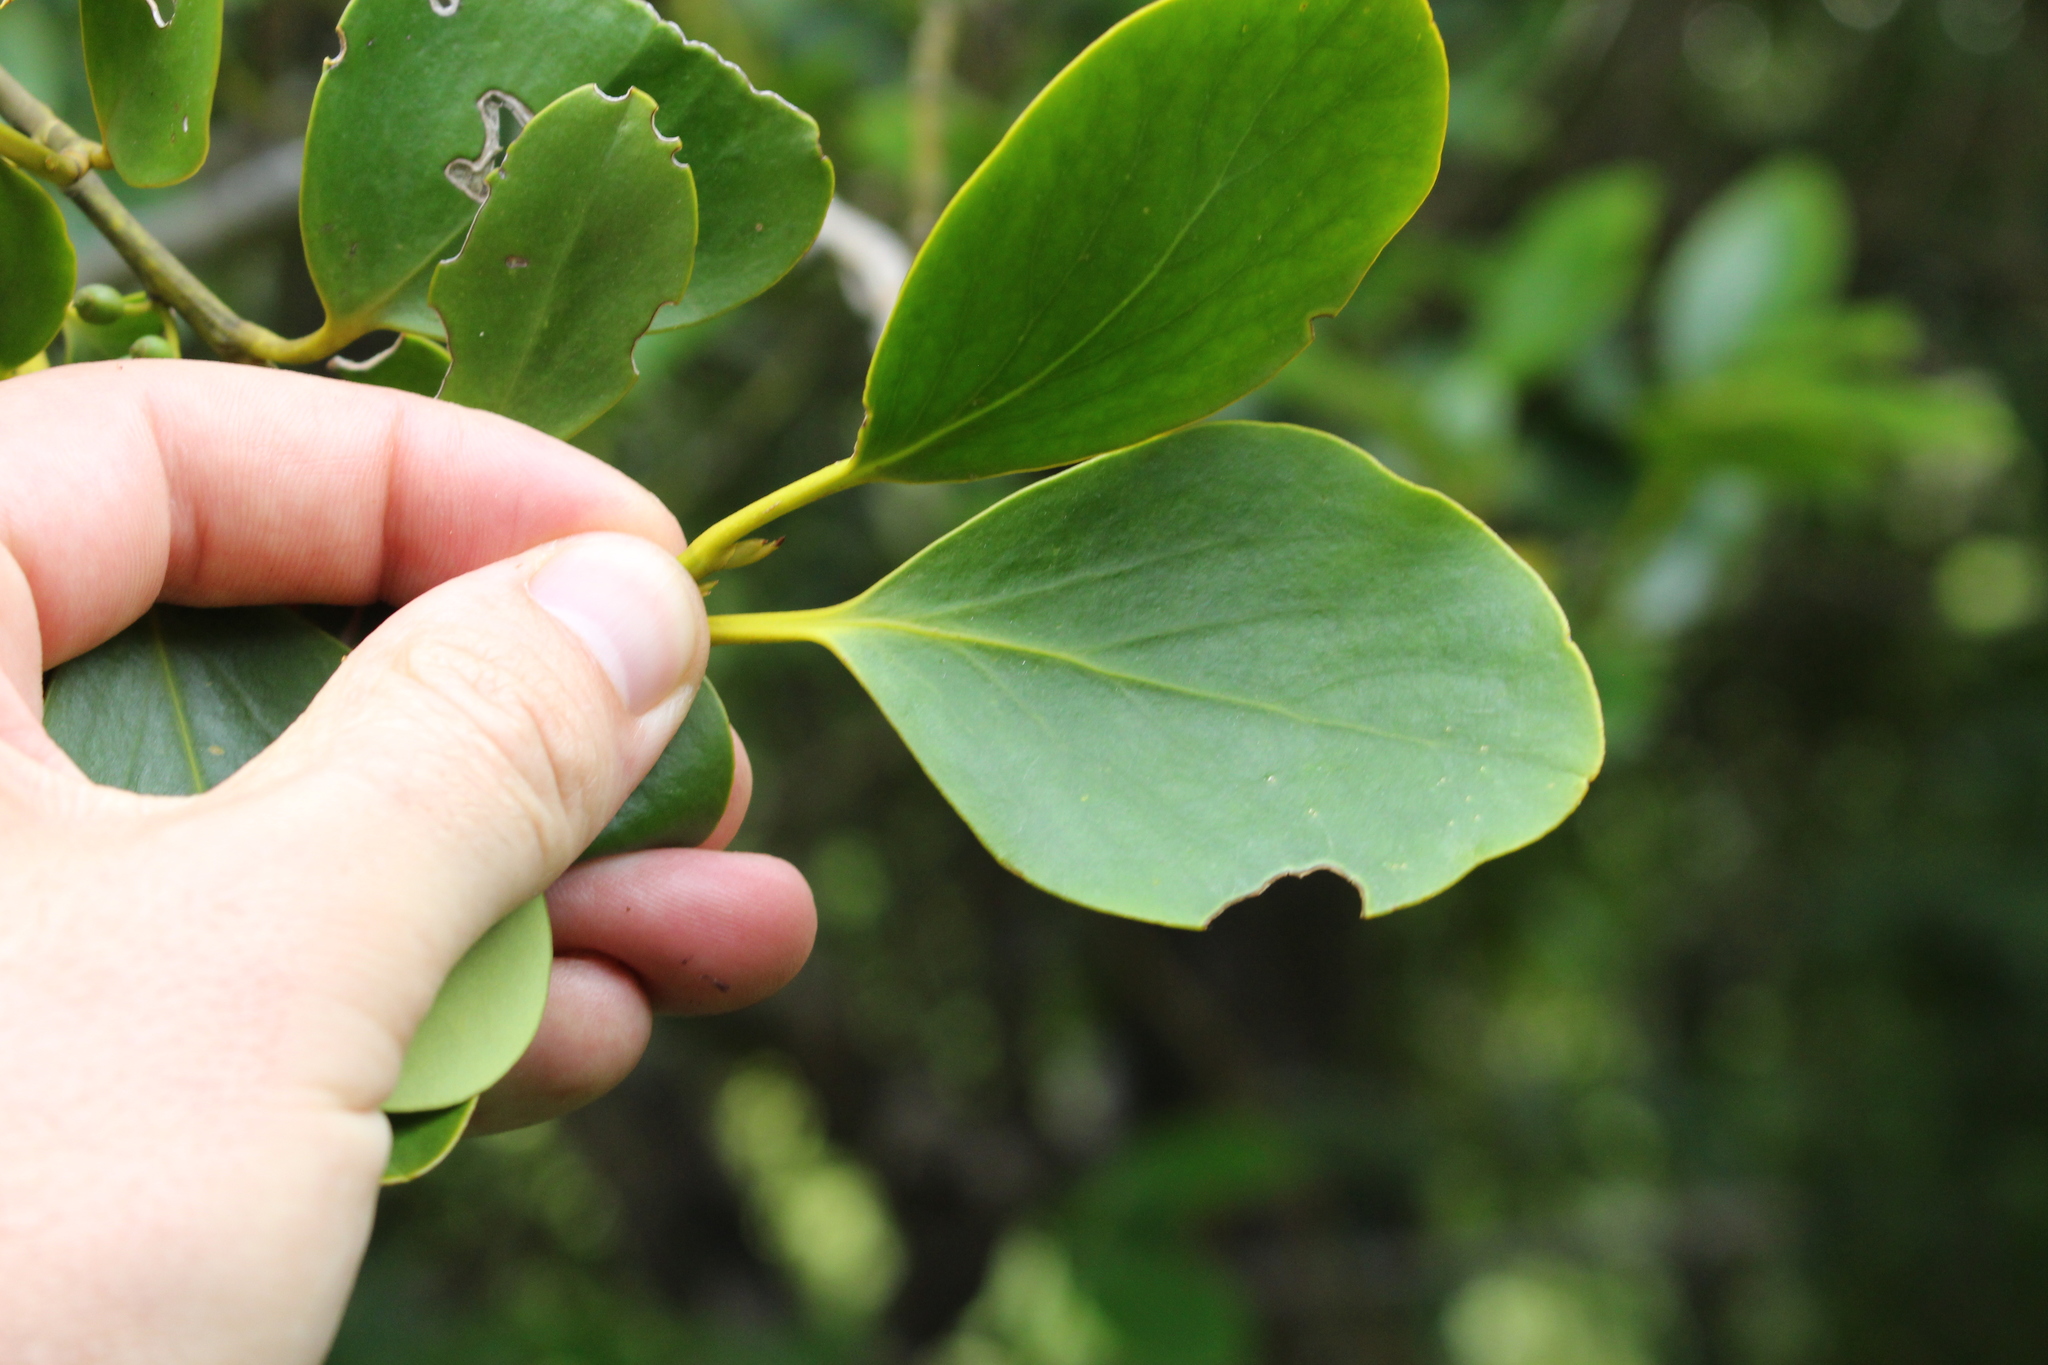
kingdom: Plantae
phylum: Tracheophyta
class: Magnoliopsida
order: Apiales
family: Griseliniaceae
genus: Griselinia
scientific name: Griselinia littoralis
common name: New zealand broadleaf
